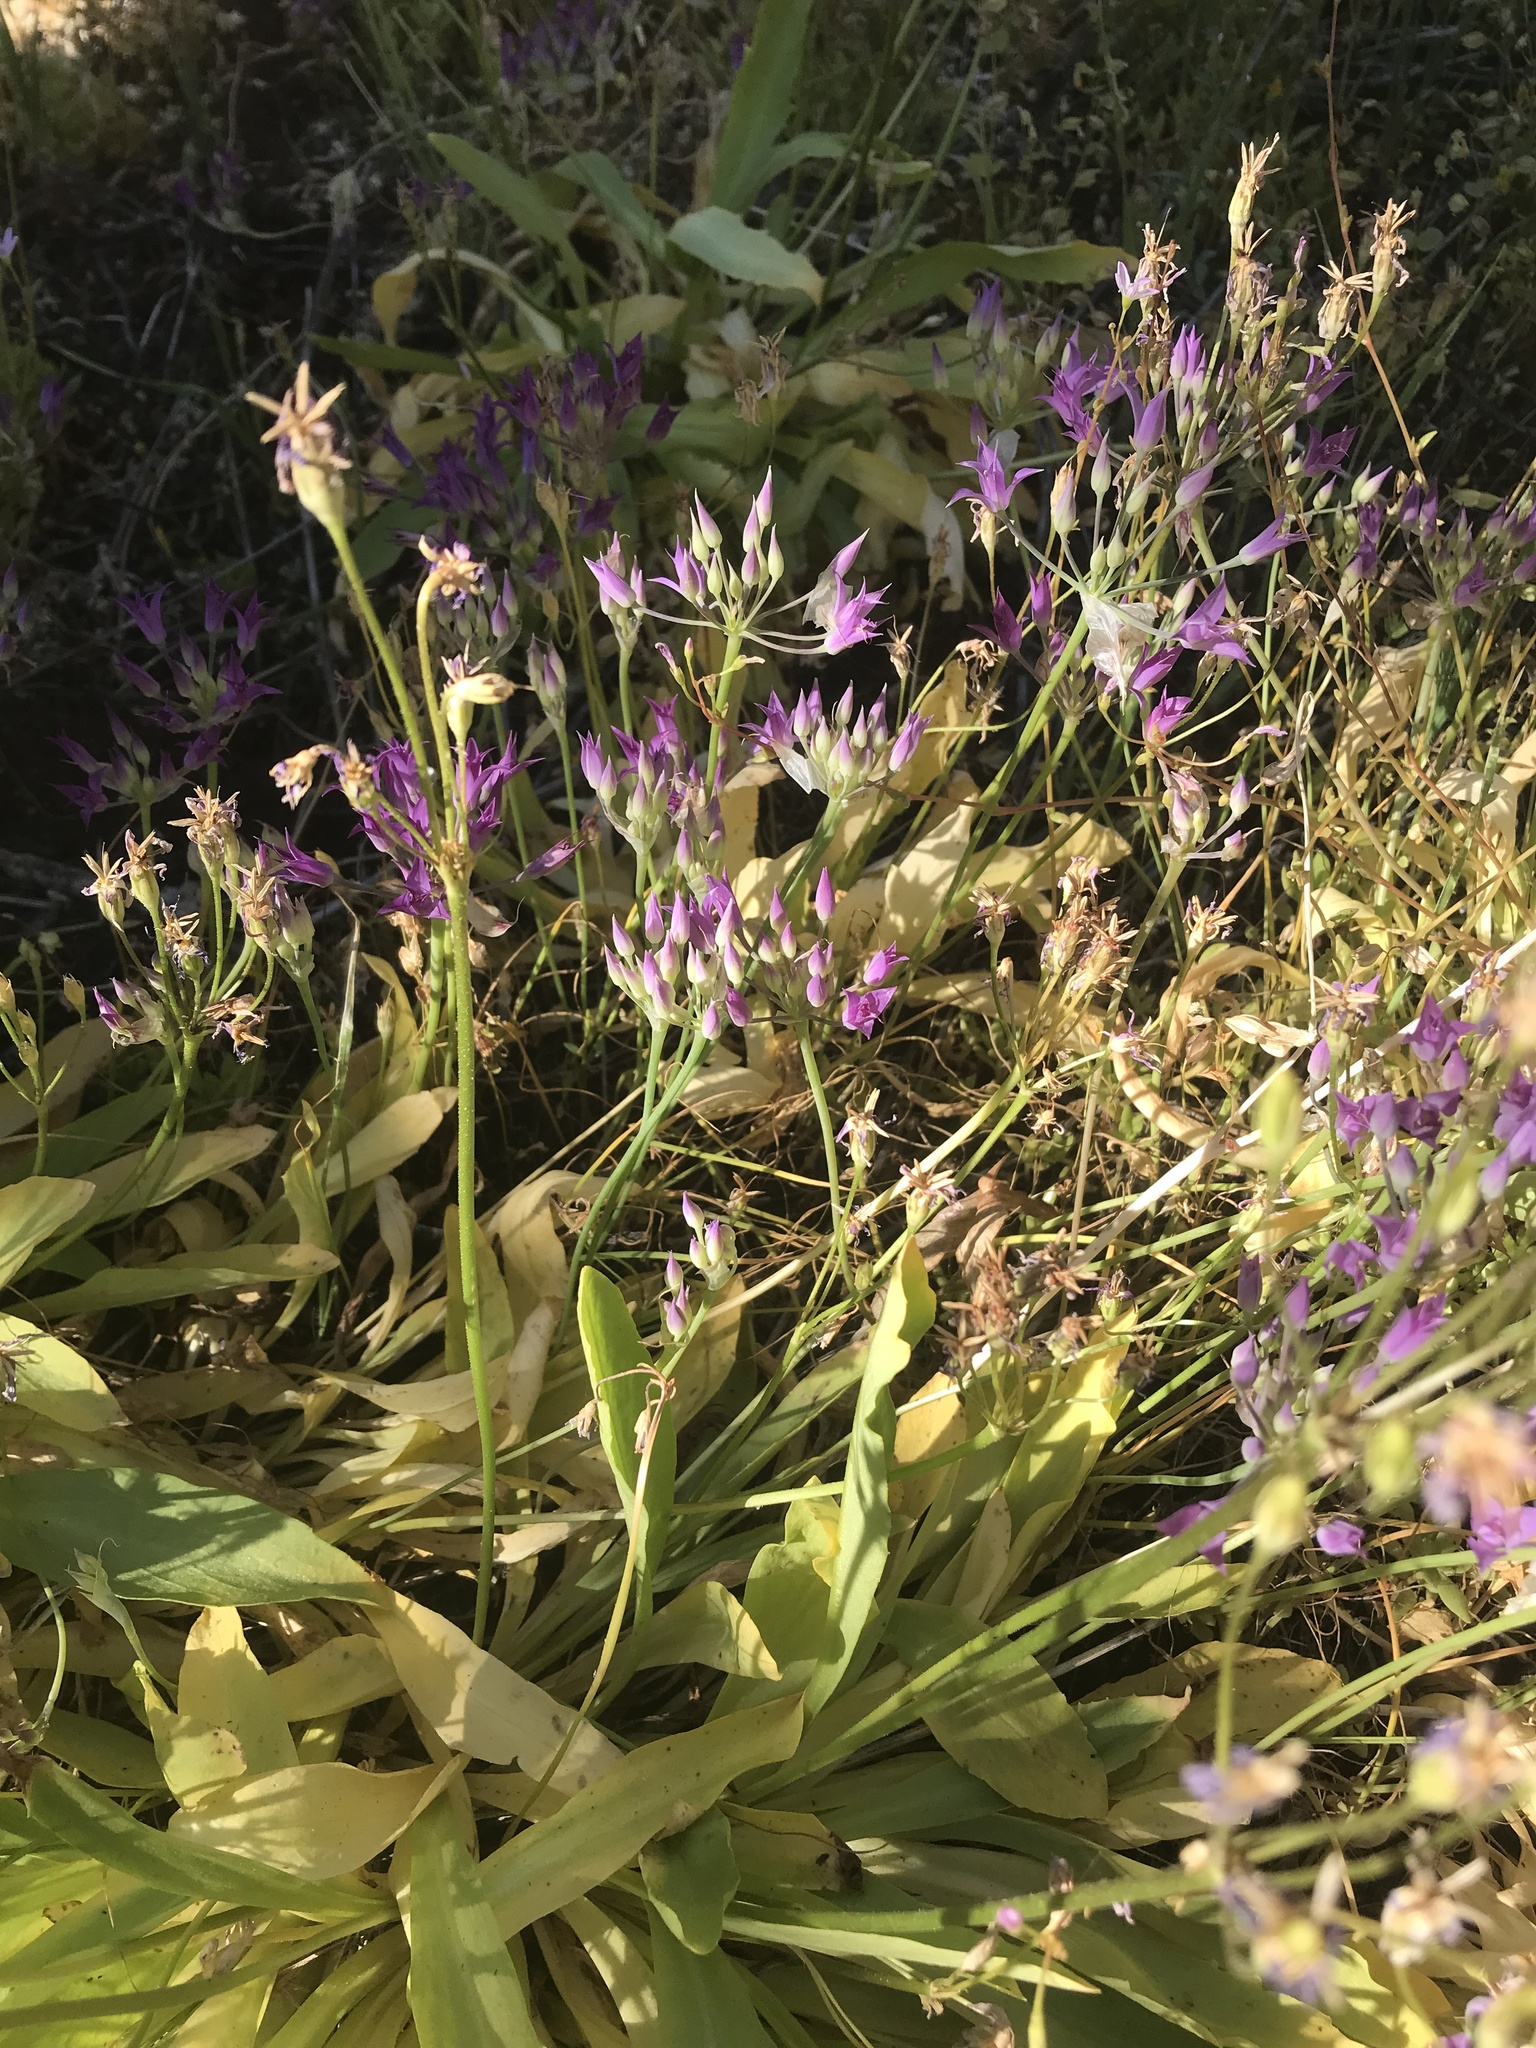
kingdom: Plantae
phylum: Tracheophyta
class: Liliopsida
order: Asparagales
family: Amaryllidaceae
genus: Allium
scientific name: Allium acuminatum
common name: Hooker's onion
